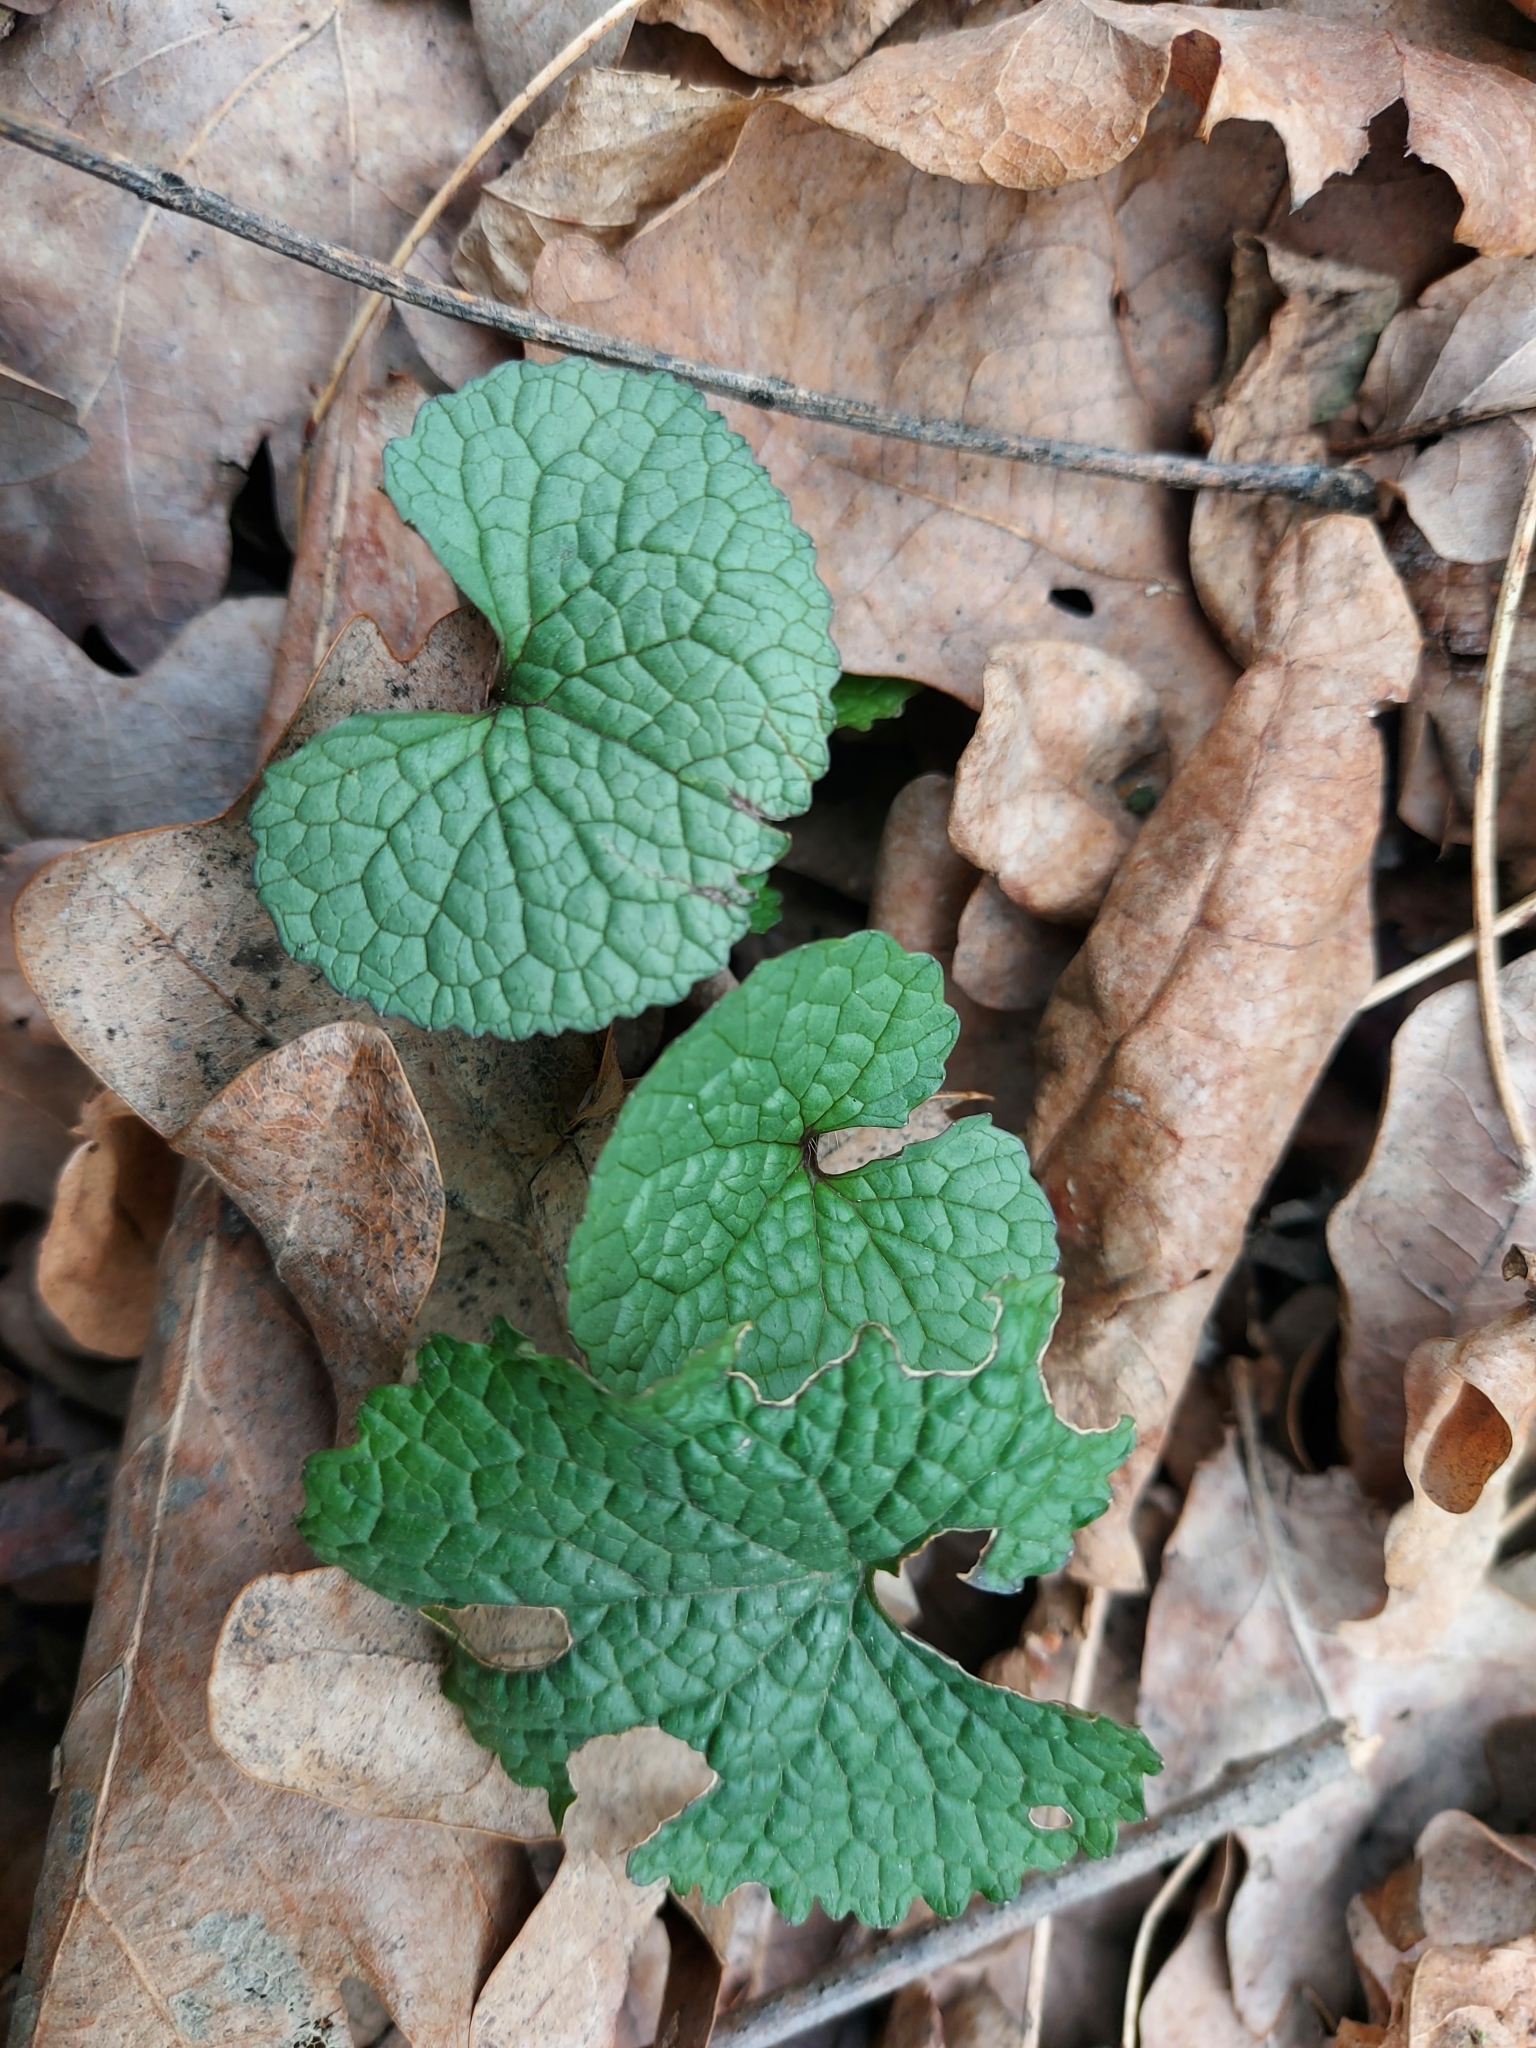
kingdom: Plantae
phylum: Tracheophyta
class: Magnoliopsida
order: Brassicales
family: Brassicaceae
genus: Alliaria
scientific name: Alliaria petiolata
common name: Garlic mustard
